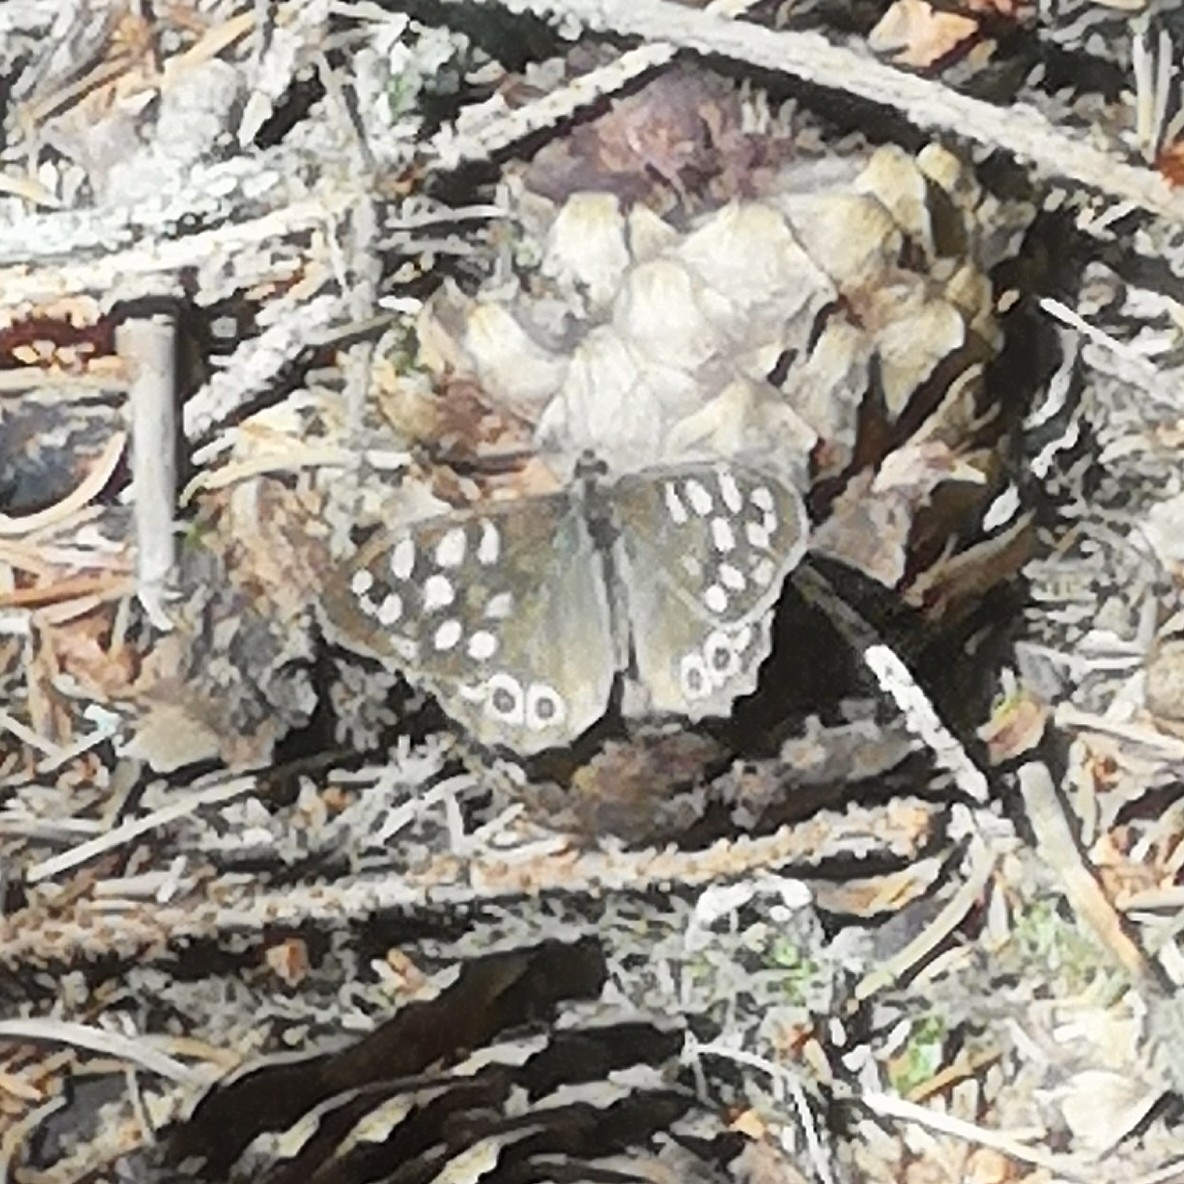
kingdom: Animalia
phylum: Arthropoda
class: Insecta
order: Lepidoptera
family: Nymphalidae
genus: Pararge
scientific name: Pararge aegeria
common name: Speckled wood
